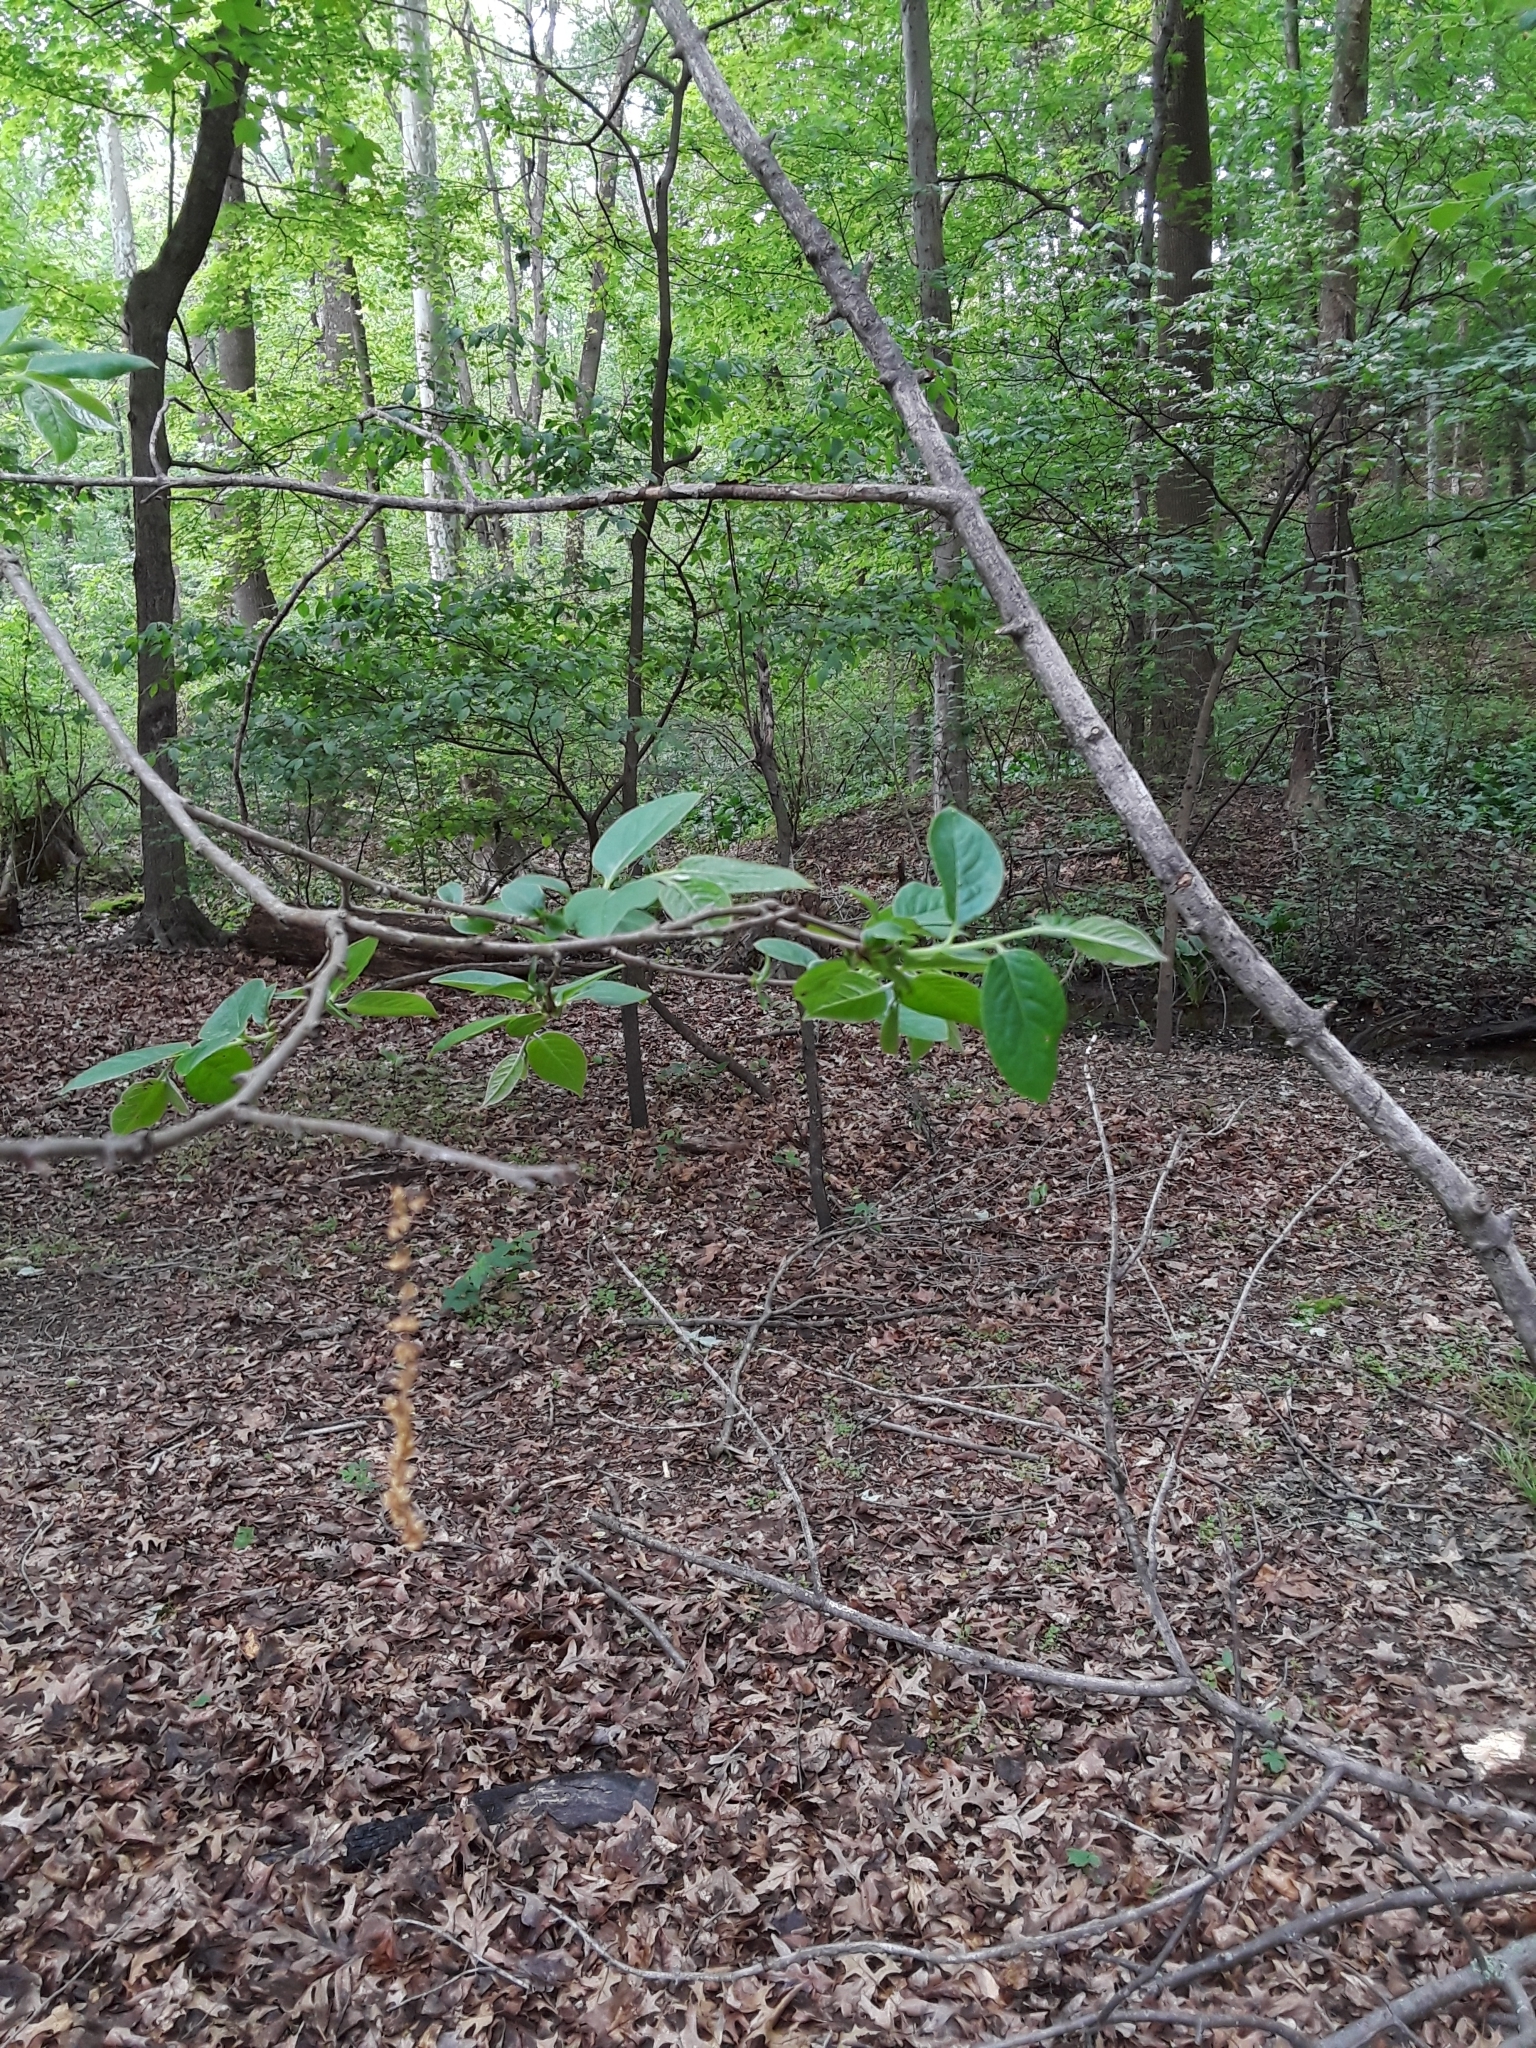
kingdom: Plantae
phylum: Tracheophyta
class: Magnoliopsida
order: Laurales
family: Lauraceae
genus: Lindera
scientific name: Lindera benzoin
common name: Spicebush
